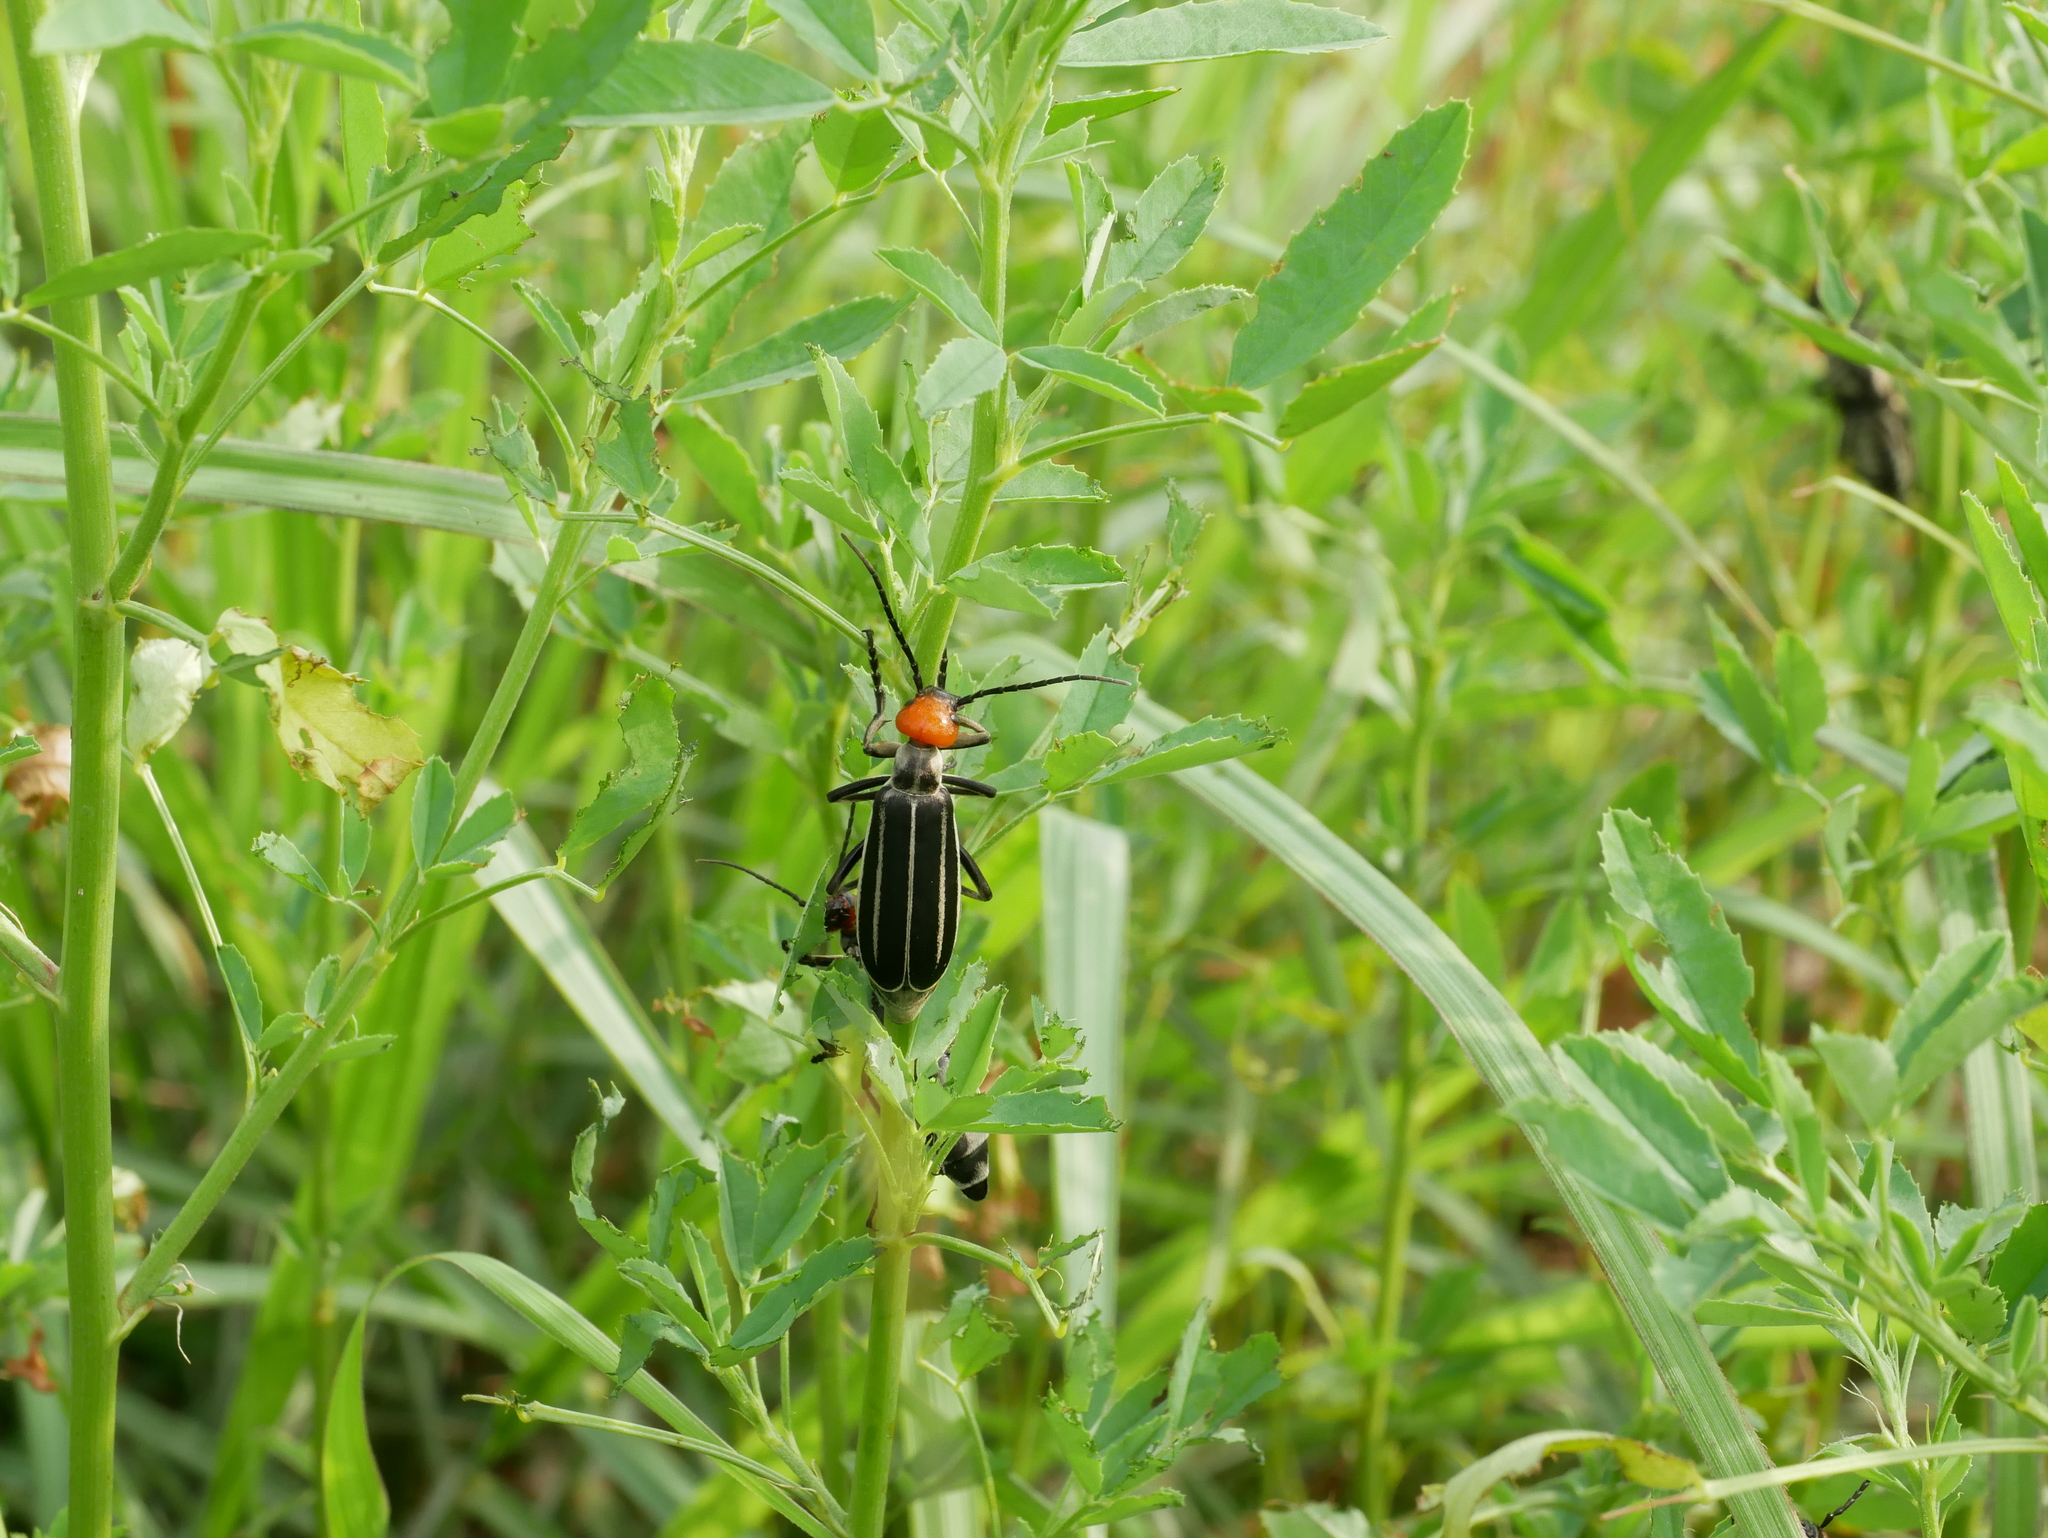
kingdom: Animalia
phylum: Arthropoda
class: Insecta
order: Coleoptera
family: Meloidae
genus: Epicauta
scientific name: Epicauta waterhousei
